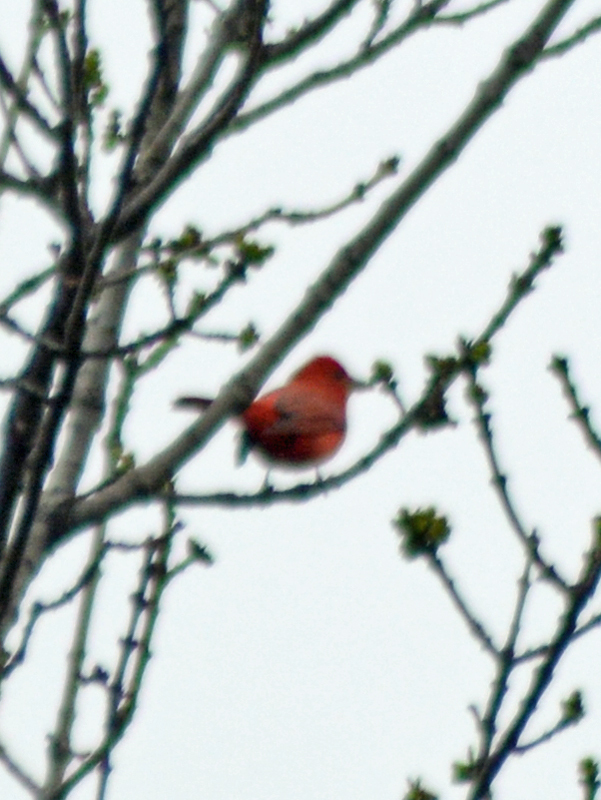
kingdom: Animalia
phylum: Chordata
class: Aves
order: Passeriformes
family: Cardinalidae
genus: Piranga
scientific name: Piranga rubra
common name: Summer tanager
